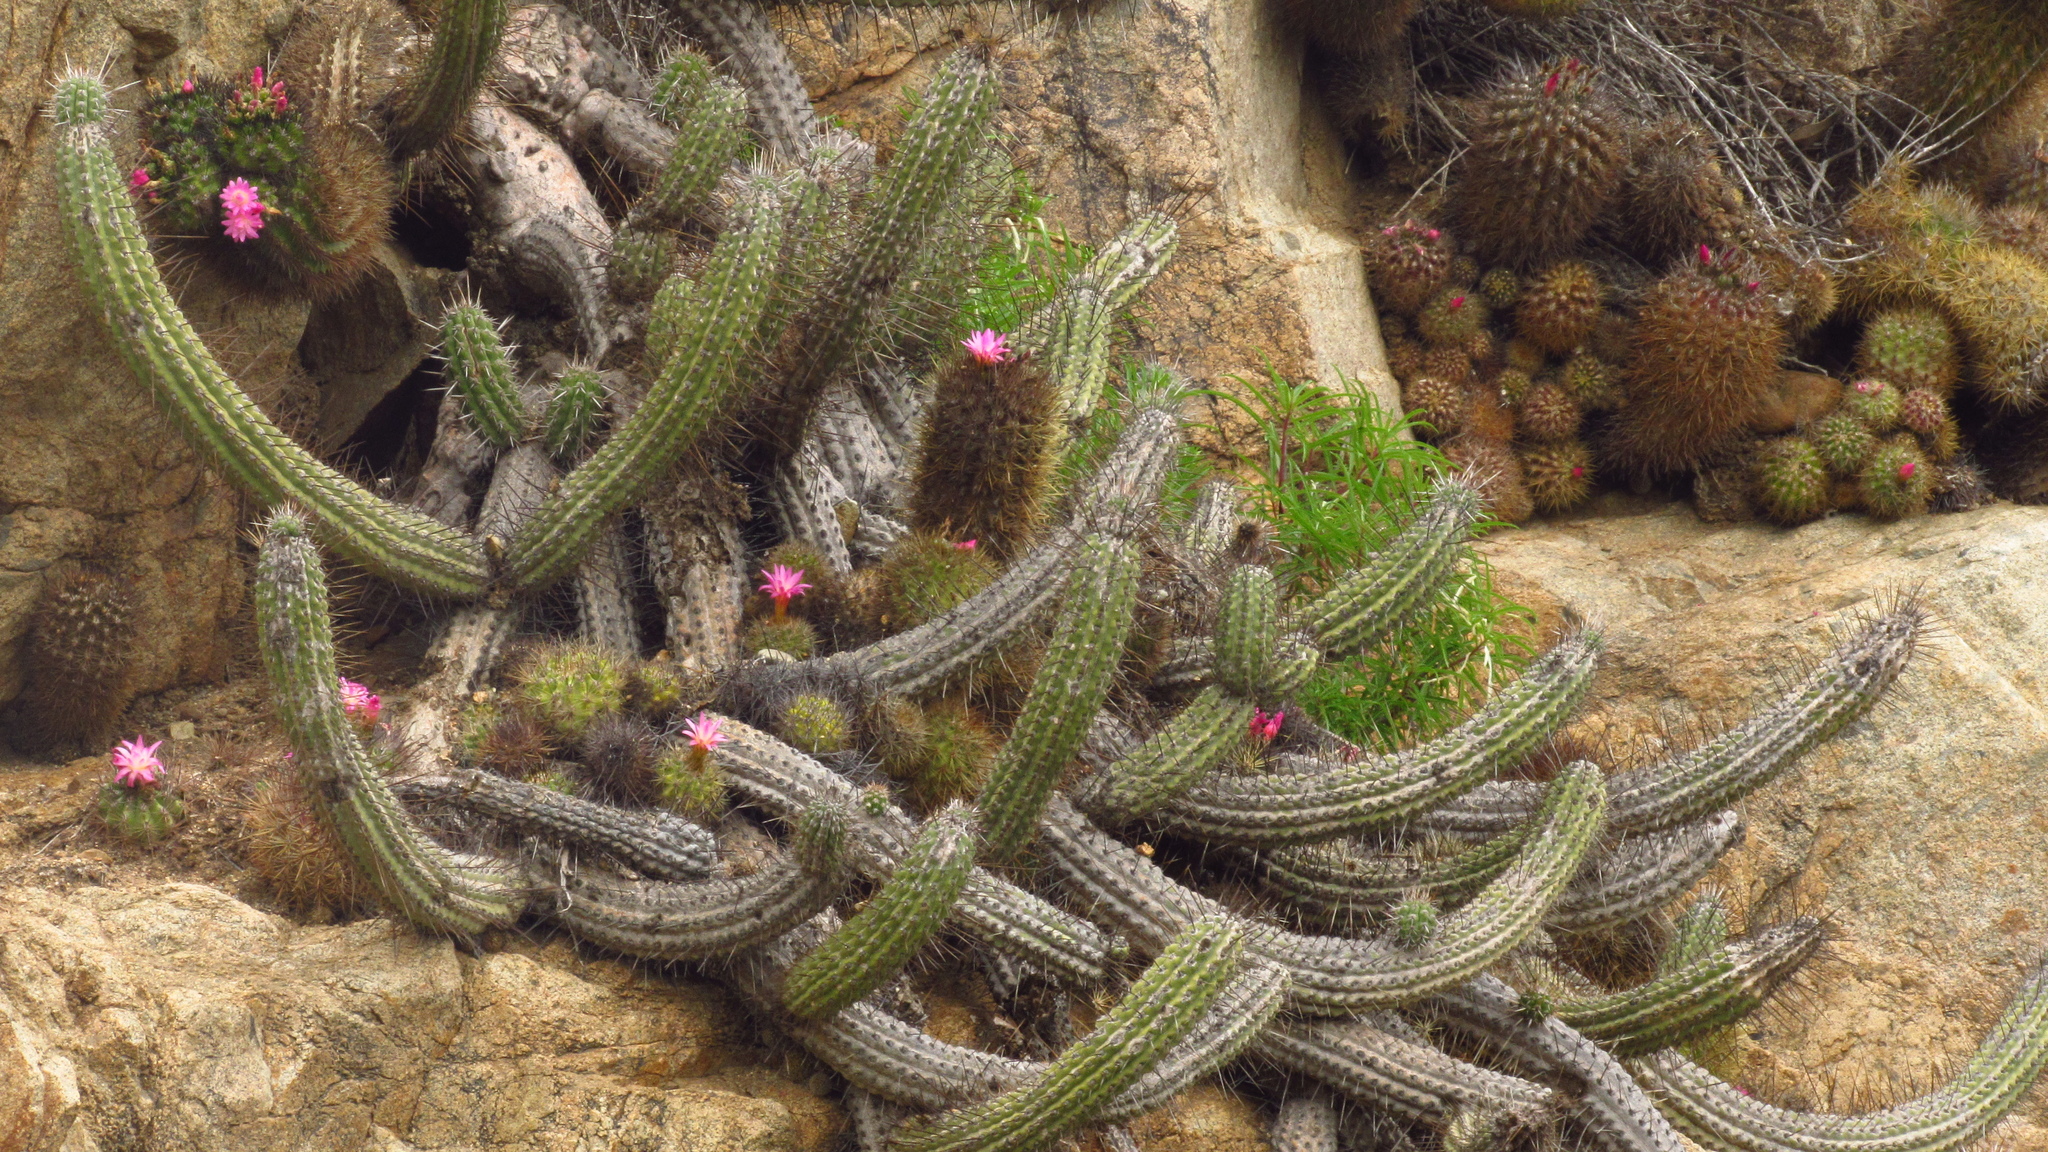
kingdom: Plantae
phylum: Tracheophyta
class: Magnoliopsida
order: Caryophyllales
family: Cactaceae
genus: Eriosyce
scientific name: Eriosyce subgibbosa
